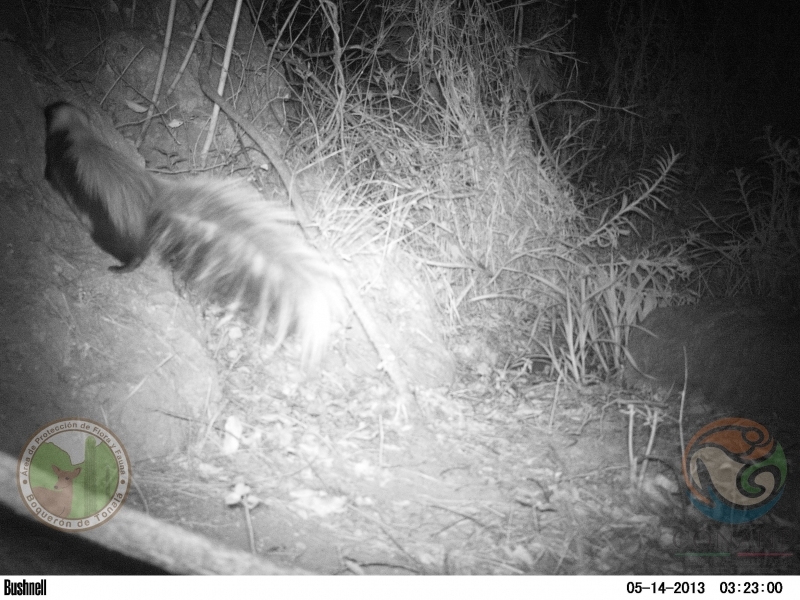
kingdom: Animalia
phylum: Chordata
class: Mammalia
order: Carnivora
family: Mephitidae
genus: Mephitis
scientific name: Mephitis macroura
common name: Hooded skunk
